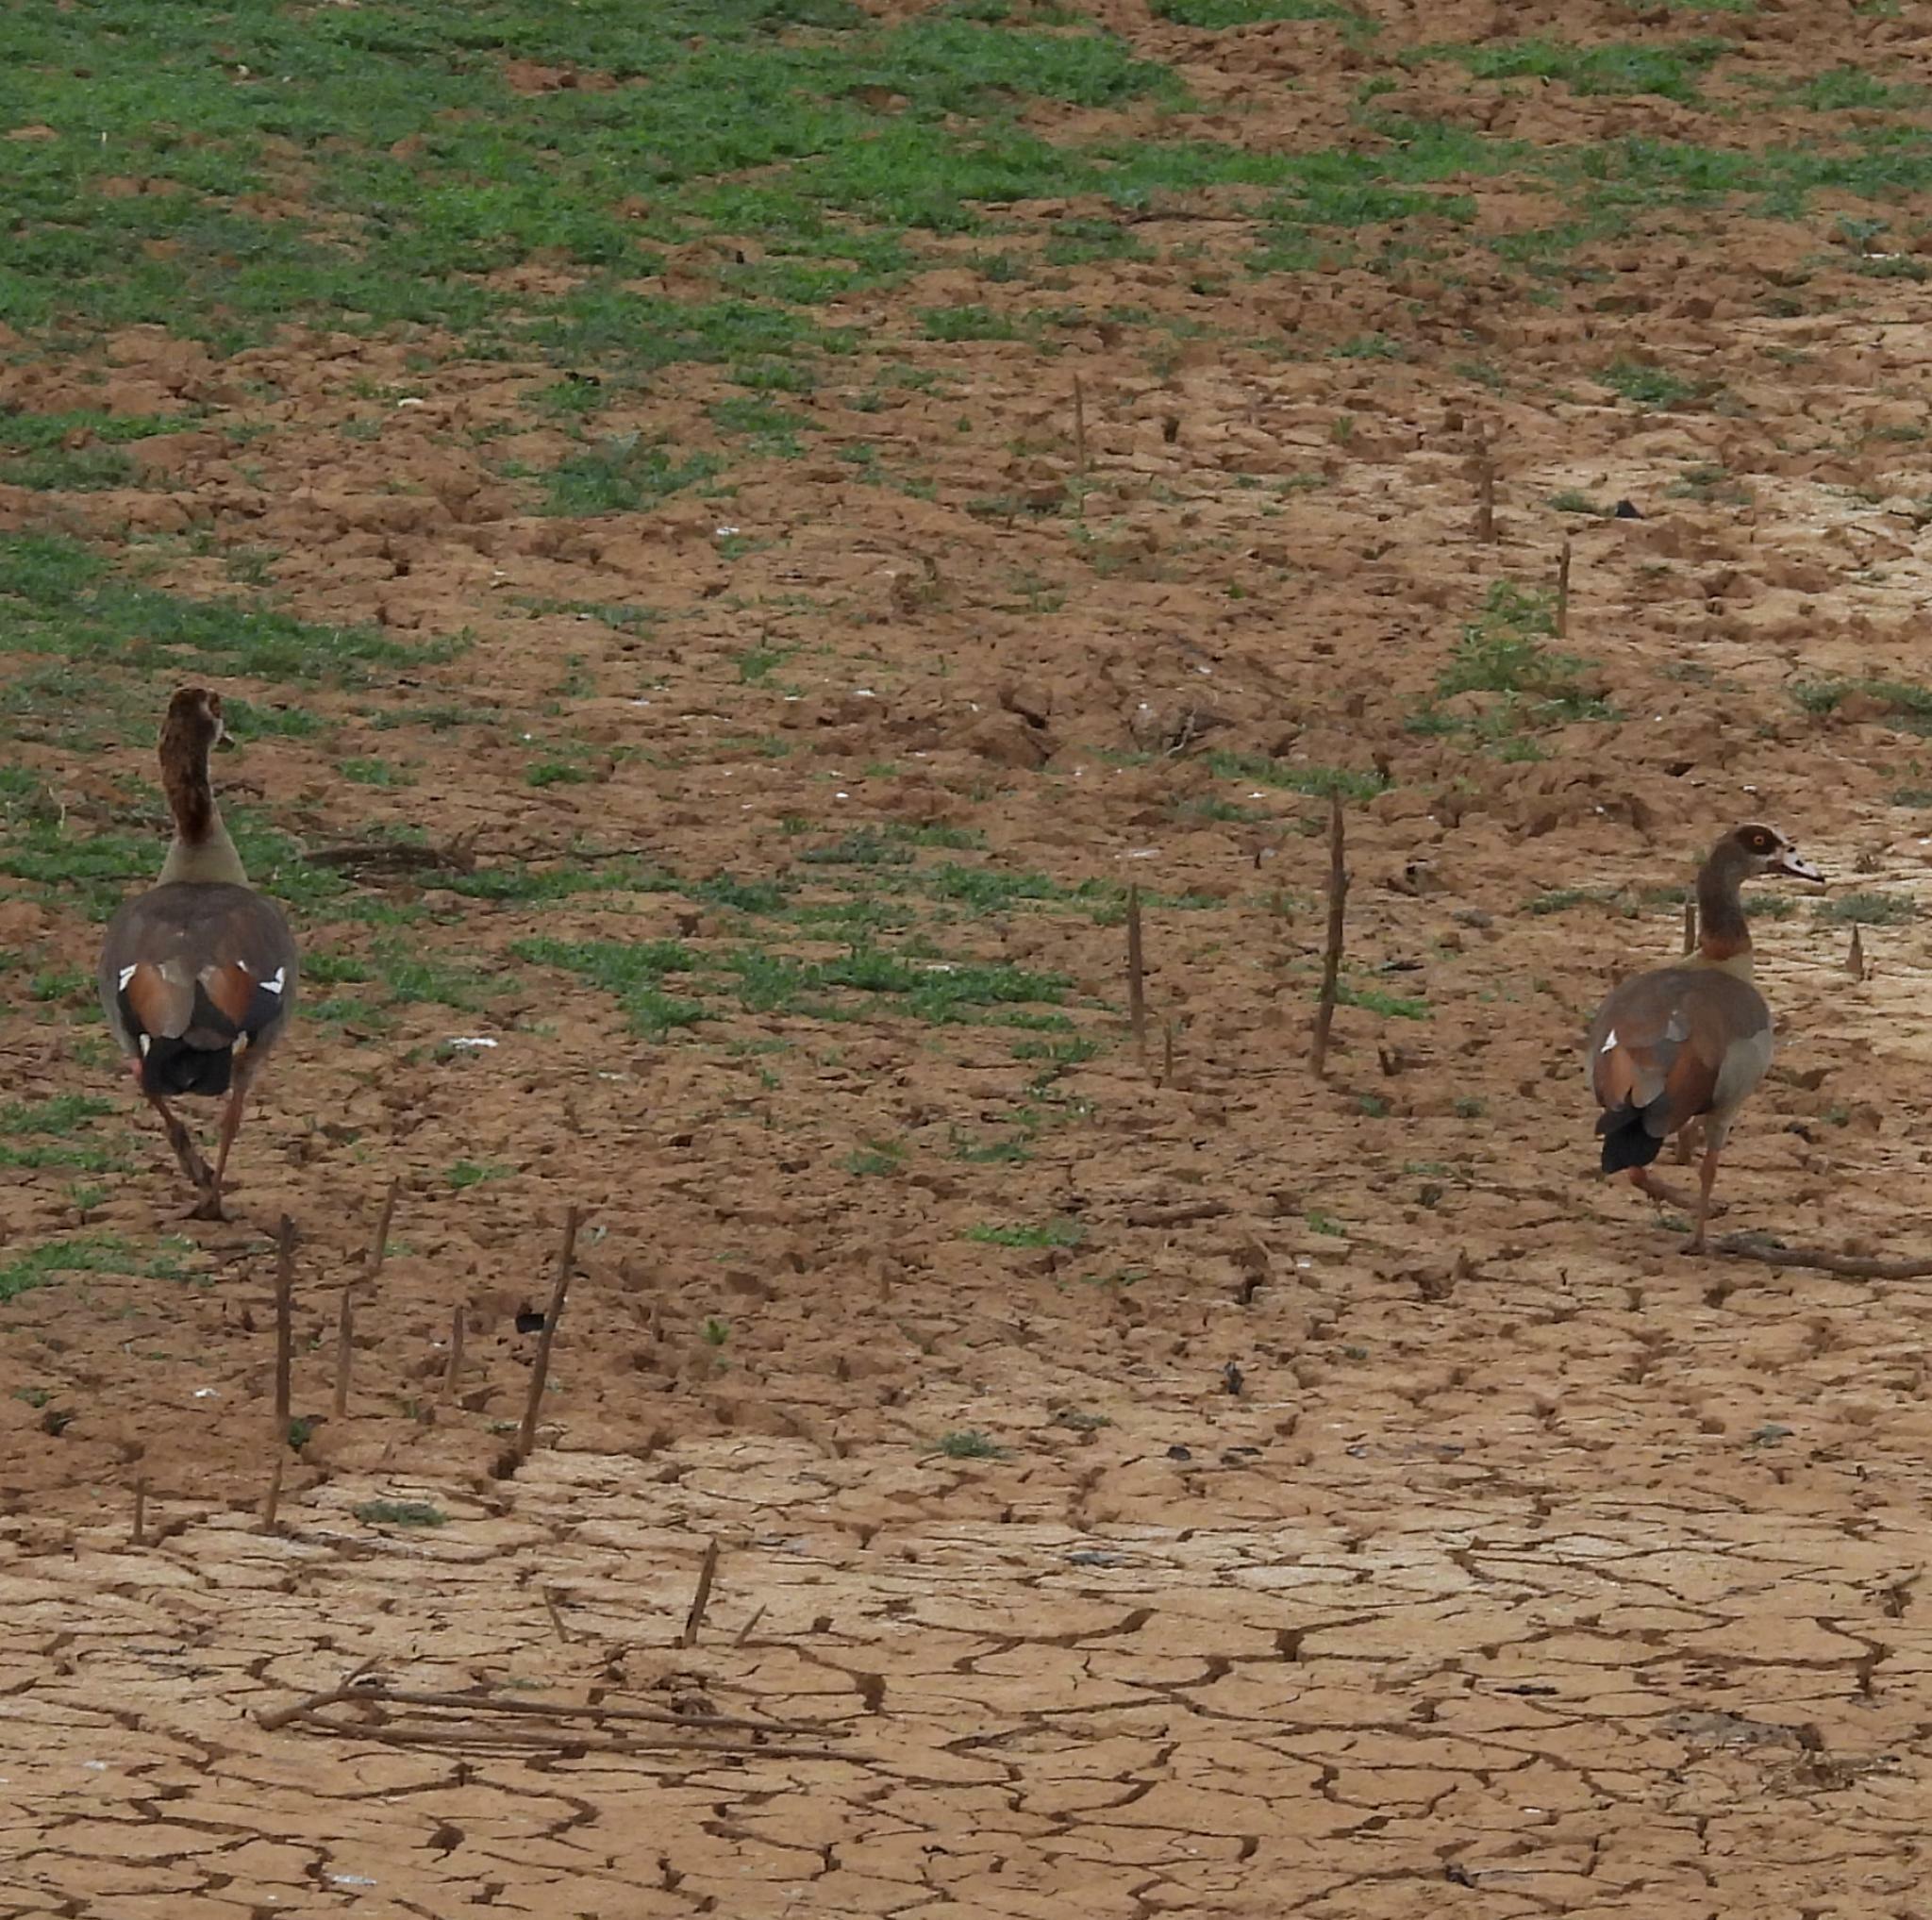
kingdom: Animalia
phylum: Chordata
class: Aves
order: Anseriformes
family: Anatidae
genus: Alopochen
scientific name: Alopochen aegyptiaca
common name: Egyptian goose
